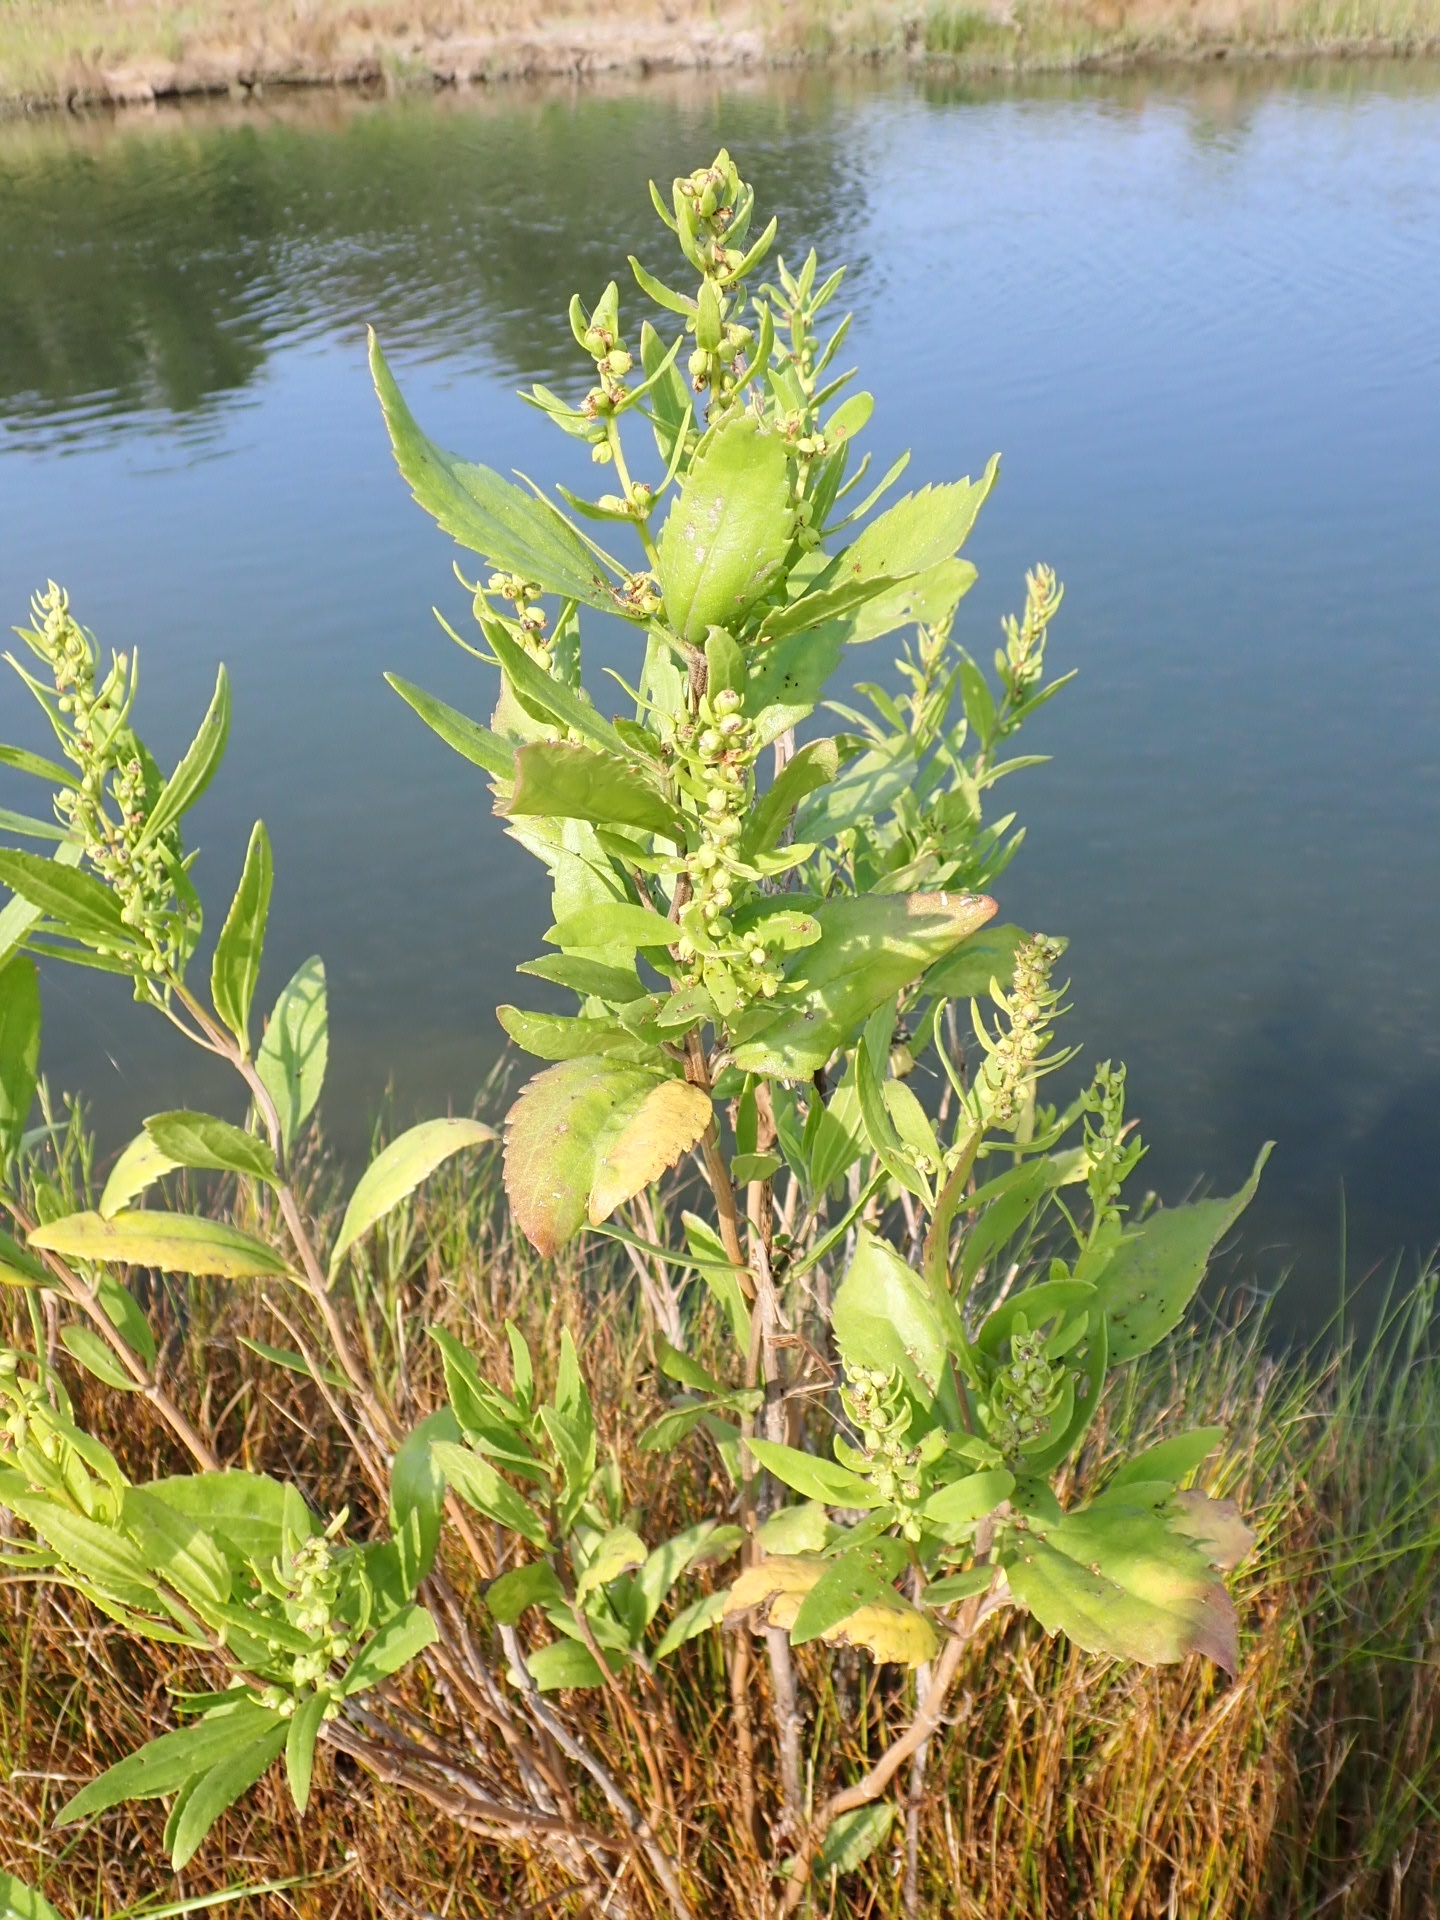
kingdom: Plantae
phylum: Tracheophyta
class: Magnoliopsida
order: Asterales
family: Asteraceae
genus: Iva
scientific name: Iva frutescens
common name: Big-leaved marsh-elder
